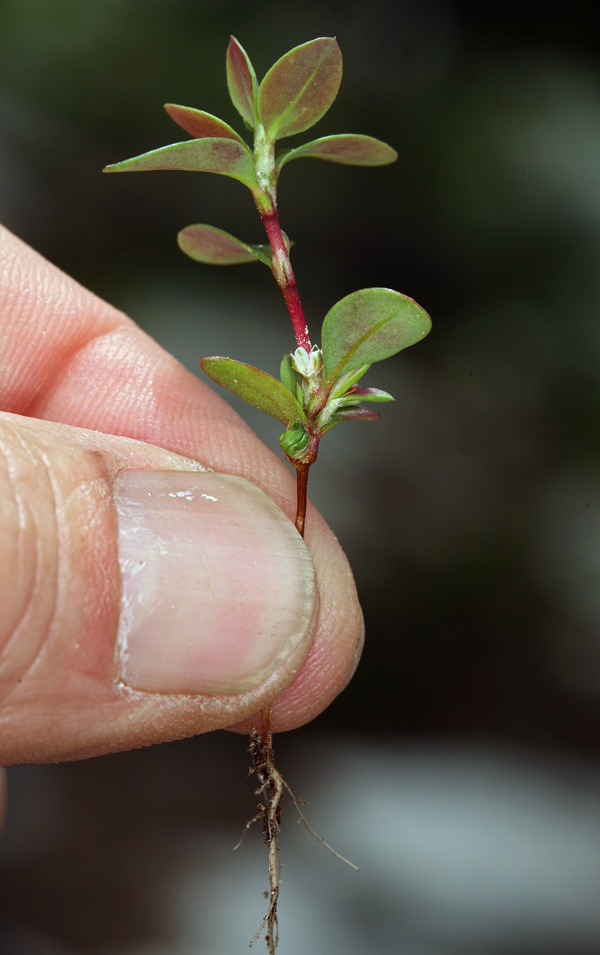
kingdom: Plantae
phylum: Tracheophyta
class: Magnoliopsida
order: Caryophyllales
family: Polygonaceae
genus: Polygonum
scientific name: Polygonum minimum
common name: Broad-leaved knotweed
